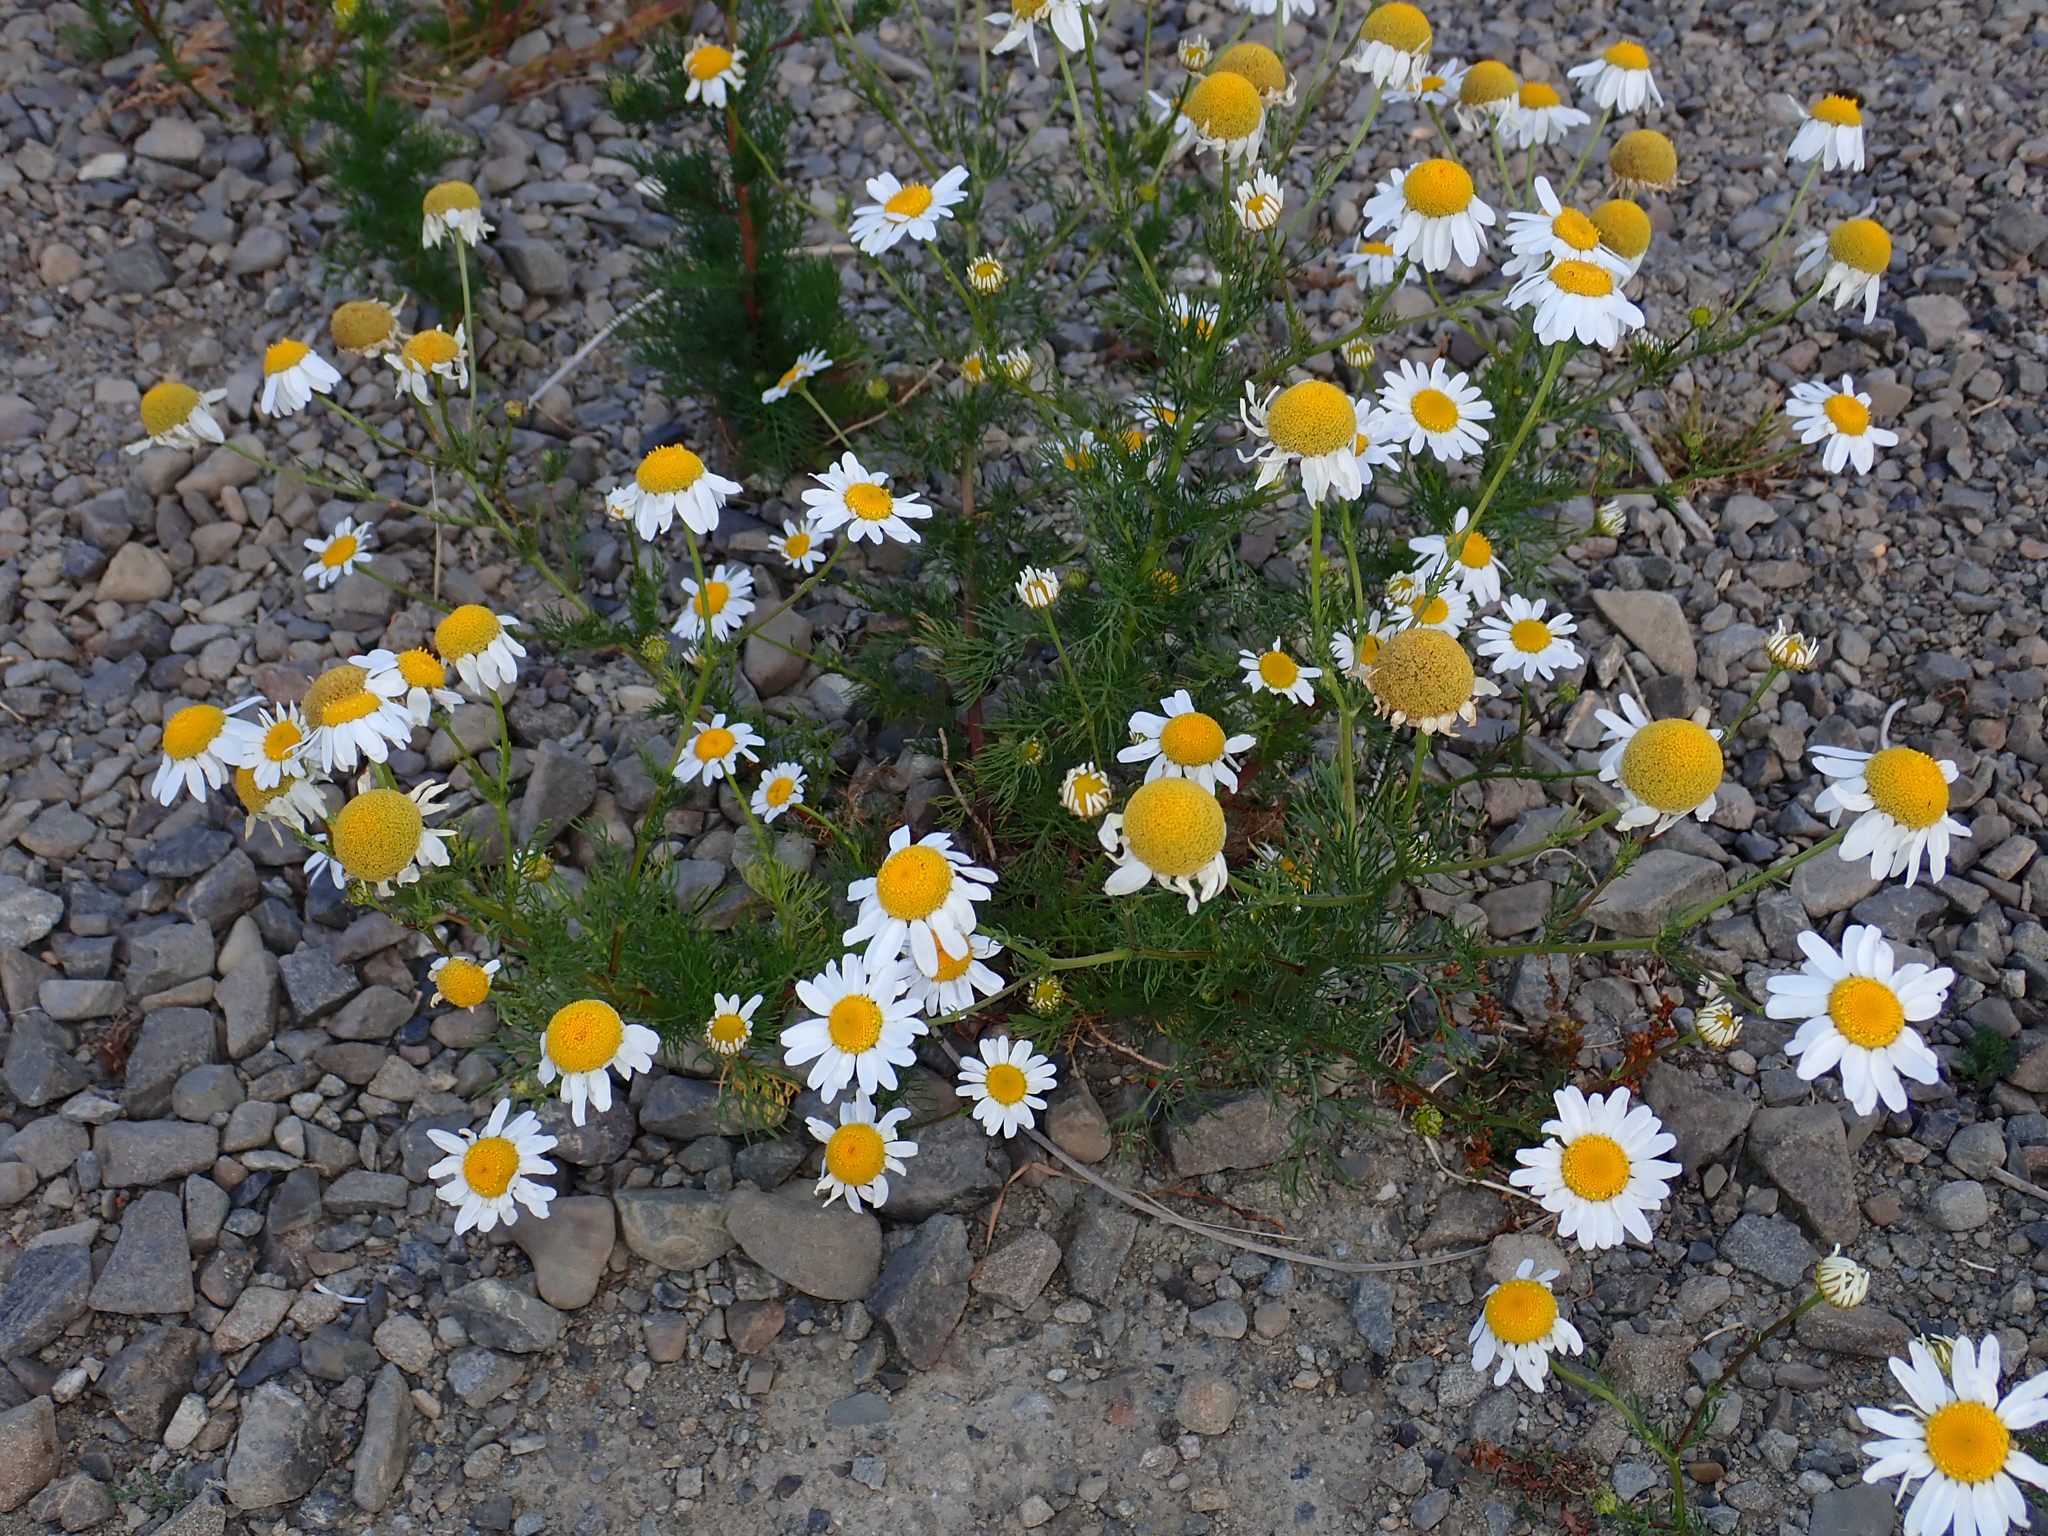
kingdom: Plantae
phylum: Tracheophyta
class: Magnoliopsida
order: Asterales
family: Asteraceae
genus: Tripleurospermum
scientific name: Tripleurospermum inodorum
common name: Scentless mayweed
